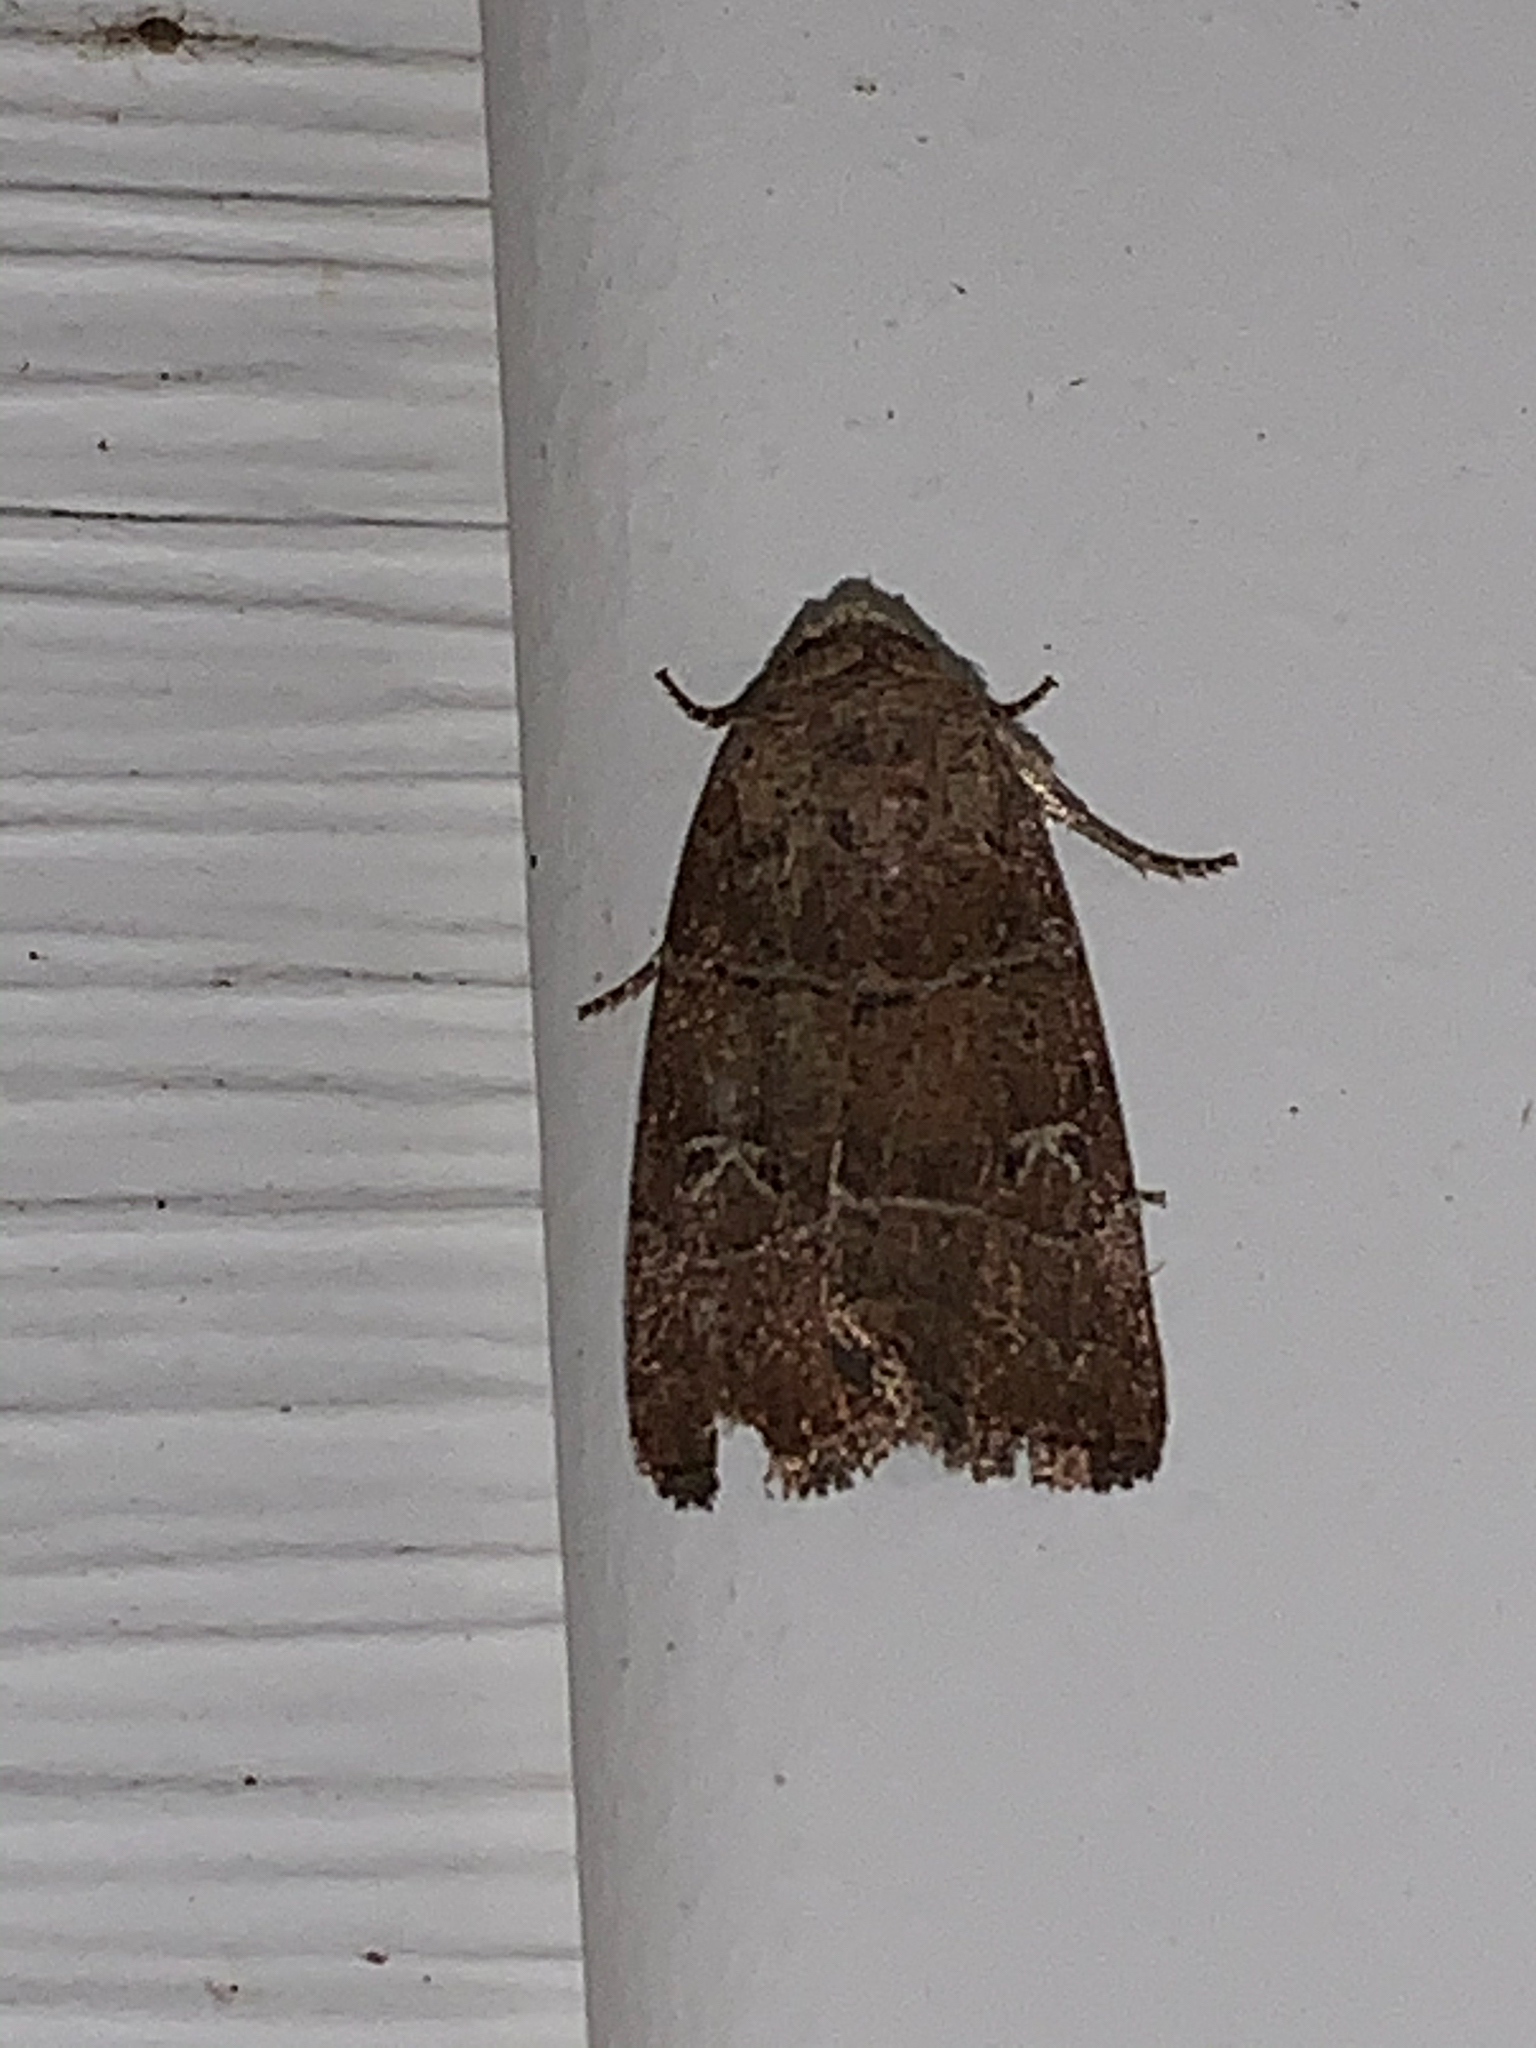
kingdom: Animalia
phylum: Arthropoda
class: Insecta
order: Lepidoptera
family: Noctuidae
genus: Elaphria
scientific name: Elaphria grata
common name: Grateful midget moth
